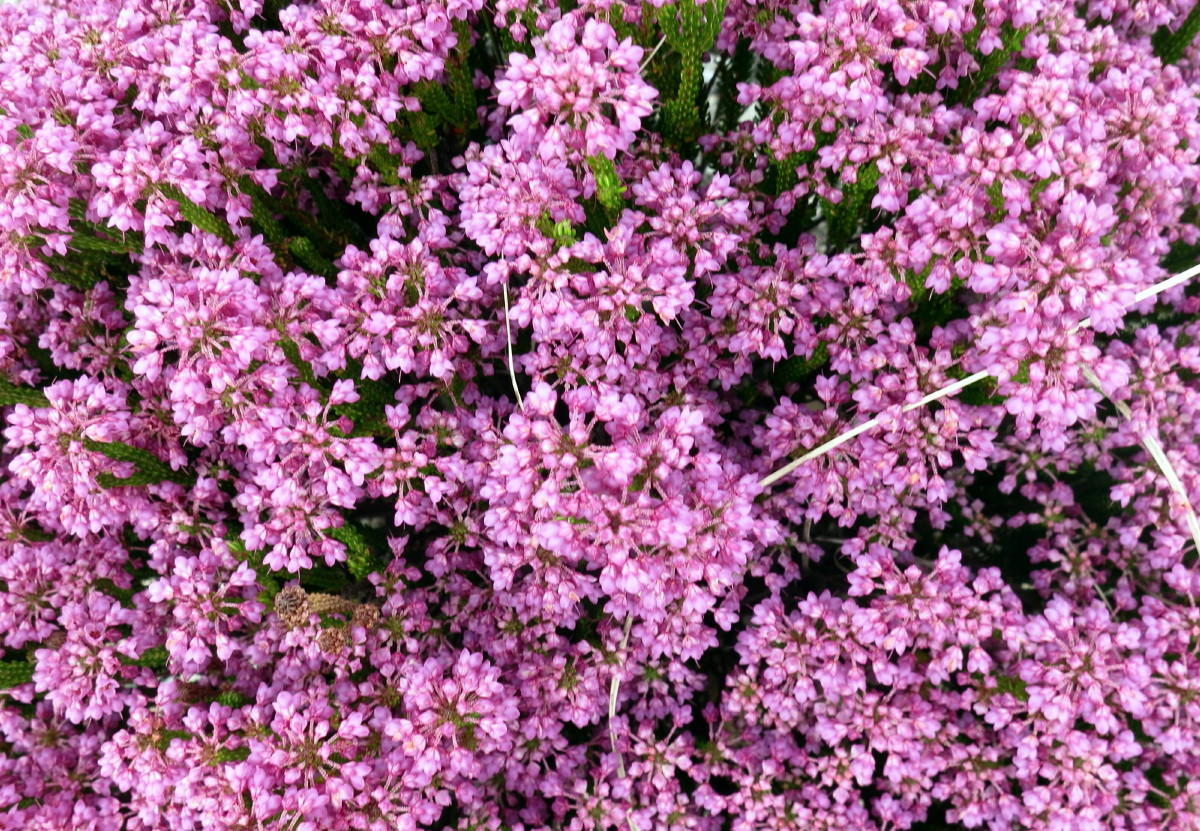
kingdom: Plantae
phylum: Tracheophyta
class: Magnoliopsida
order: Ericales
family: Ericaceae
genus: Erica
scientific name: Erica seriphiifolia
